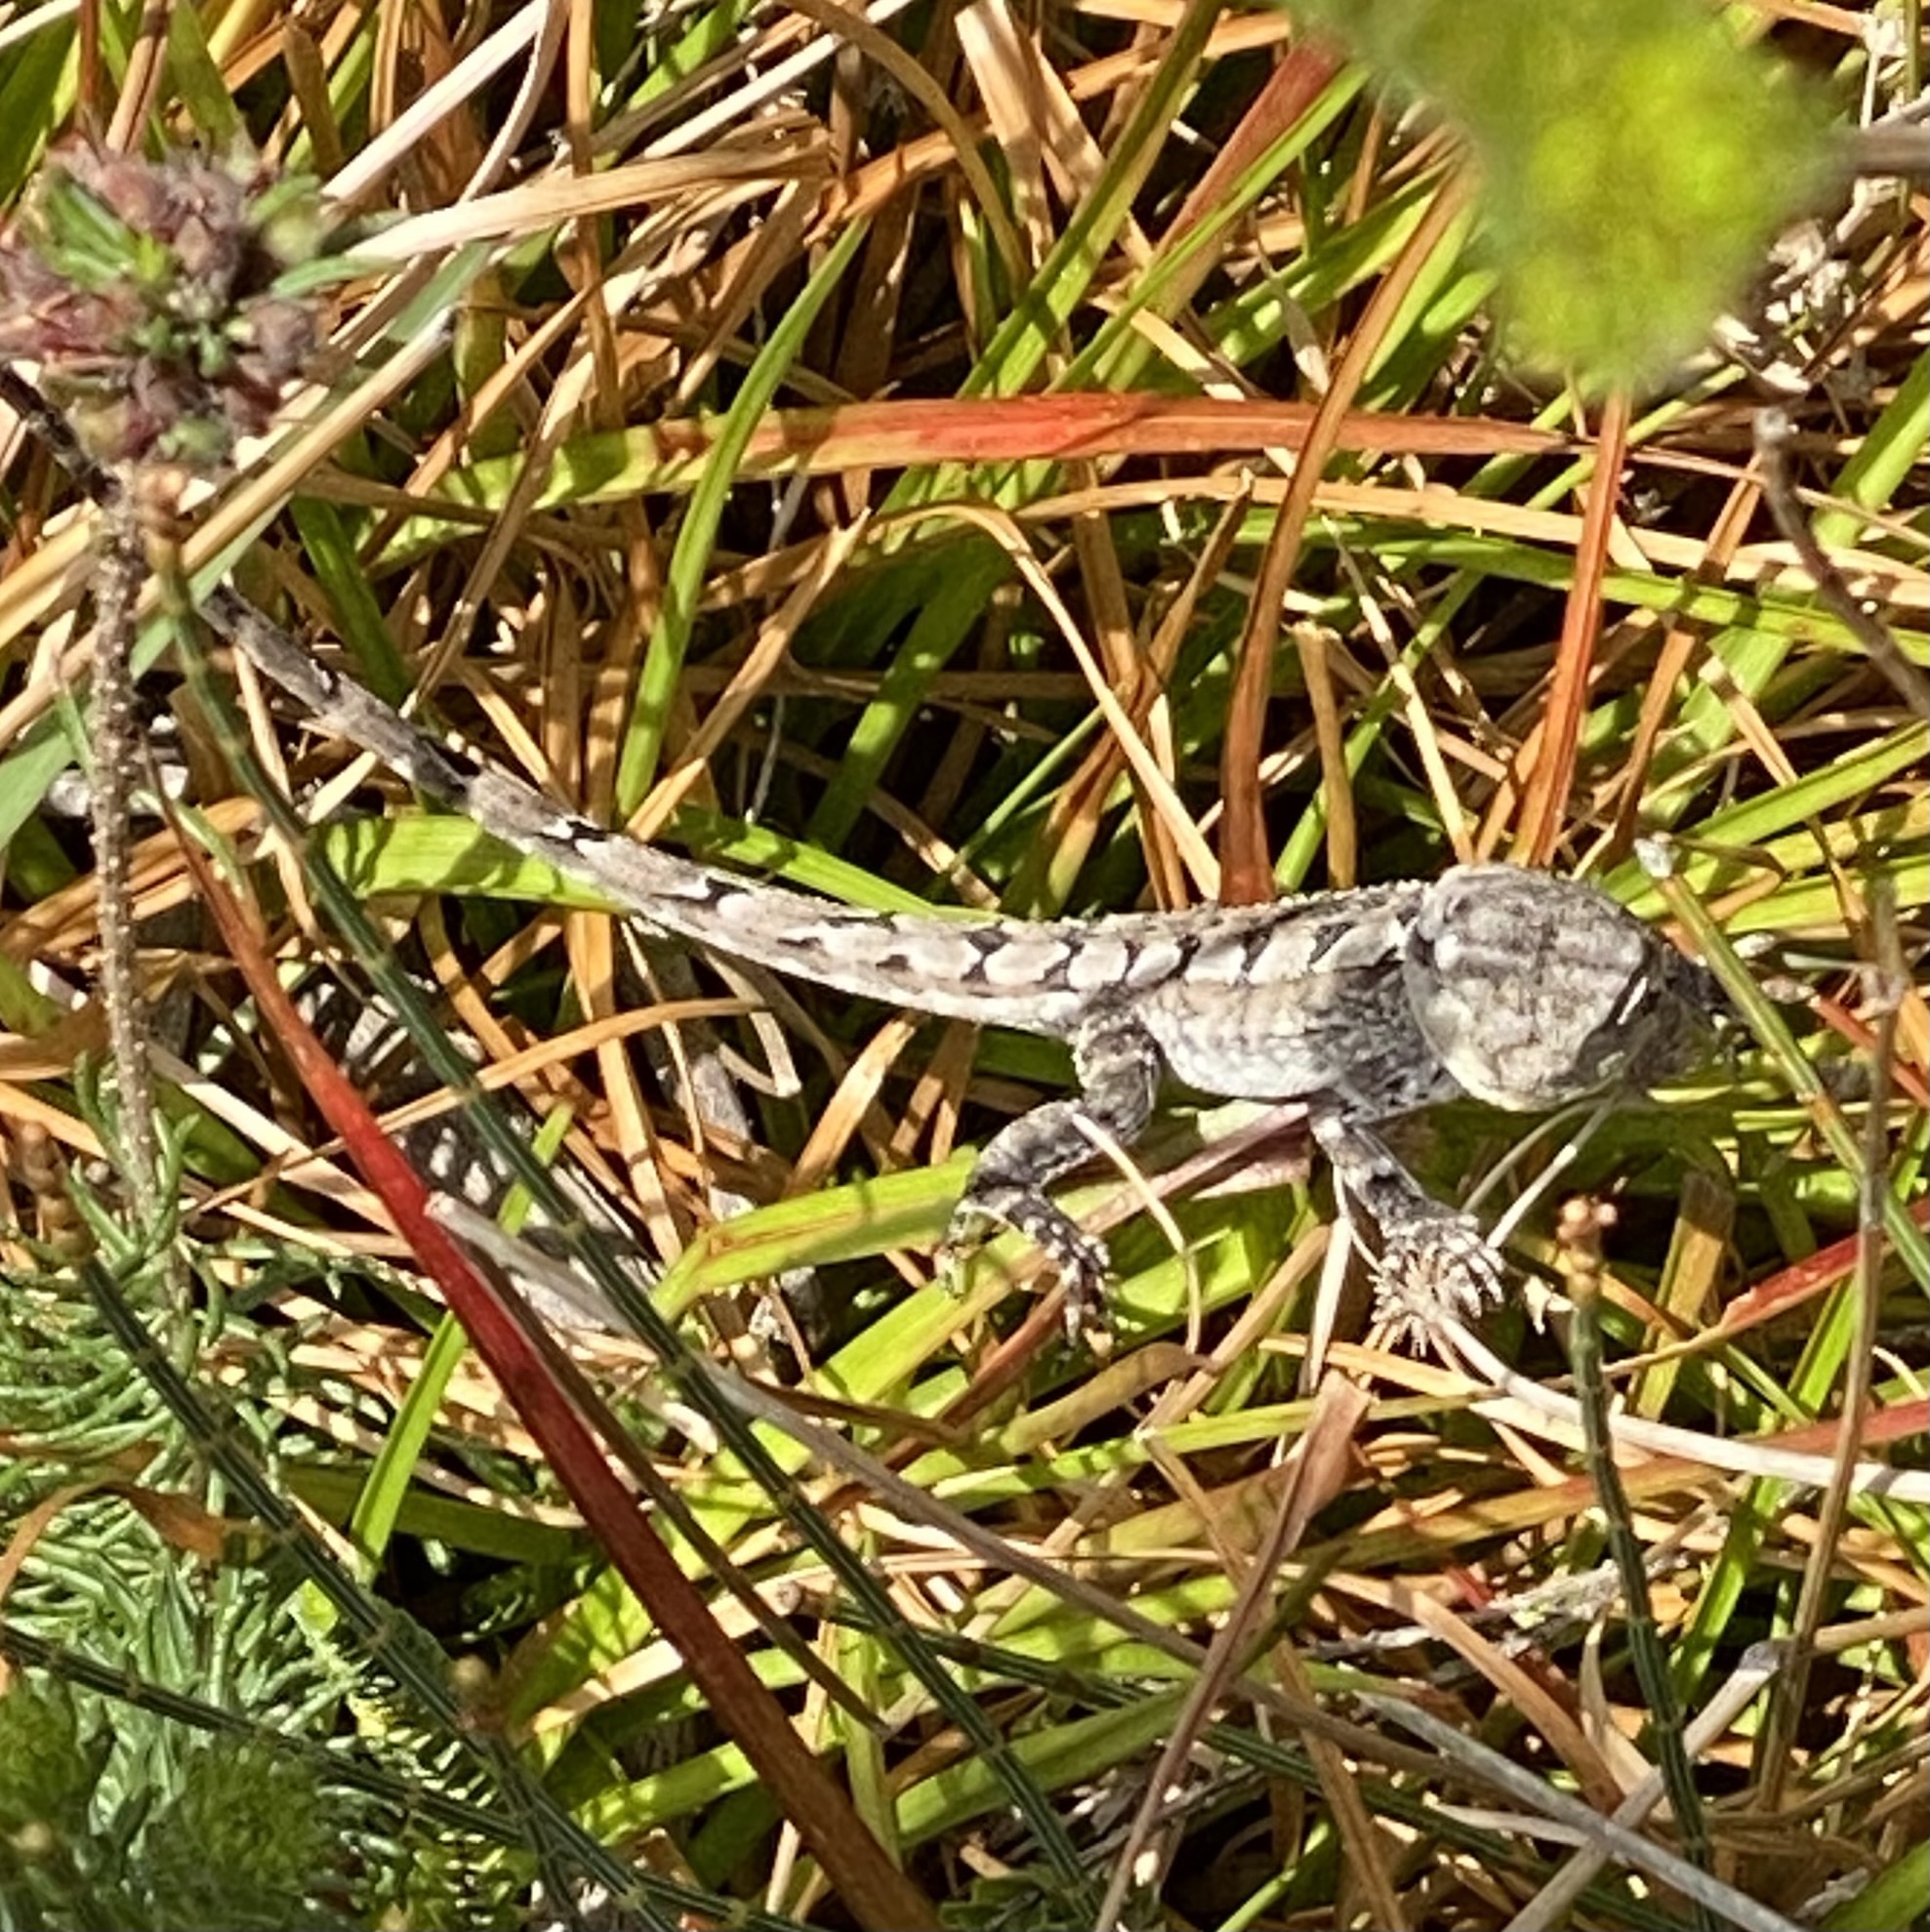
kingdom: Animalia
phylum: Chordata
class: Squamata
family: Agamidae
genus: Amphibolurus
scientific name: Amphibolurus muricatus
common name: Jacky lizard
